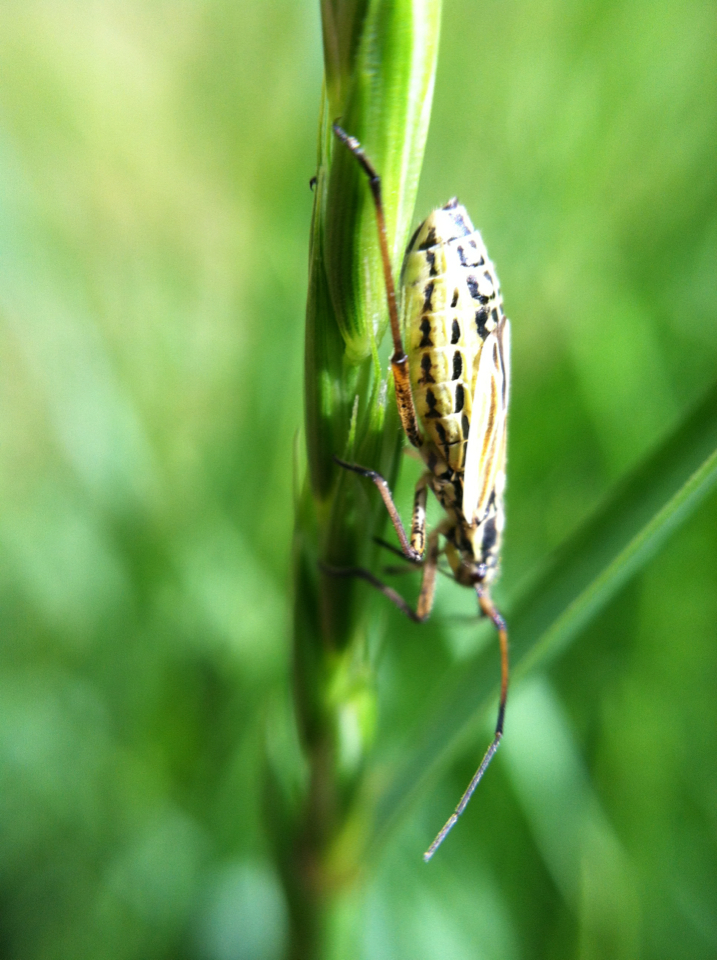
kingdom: Animalia
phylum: Arthropoda
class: Insecta
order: Hemiptera
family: Miridae
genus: Leptopterna
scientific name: Leptopterna dolabrata
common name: Meadow plant bug
